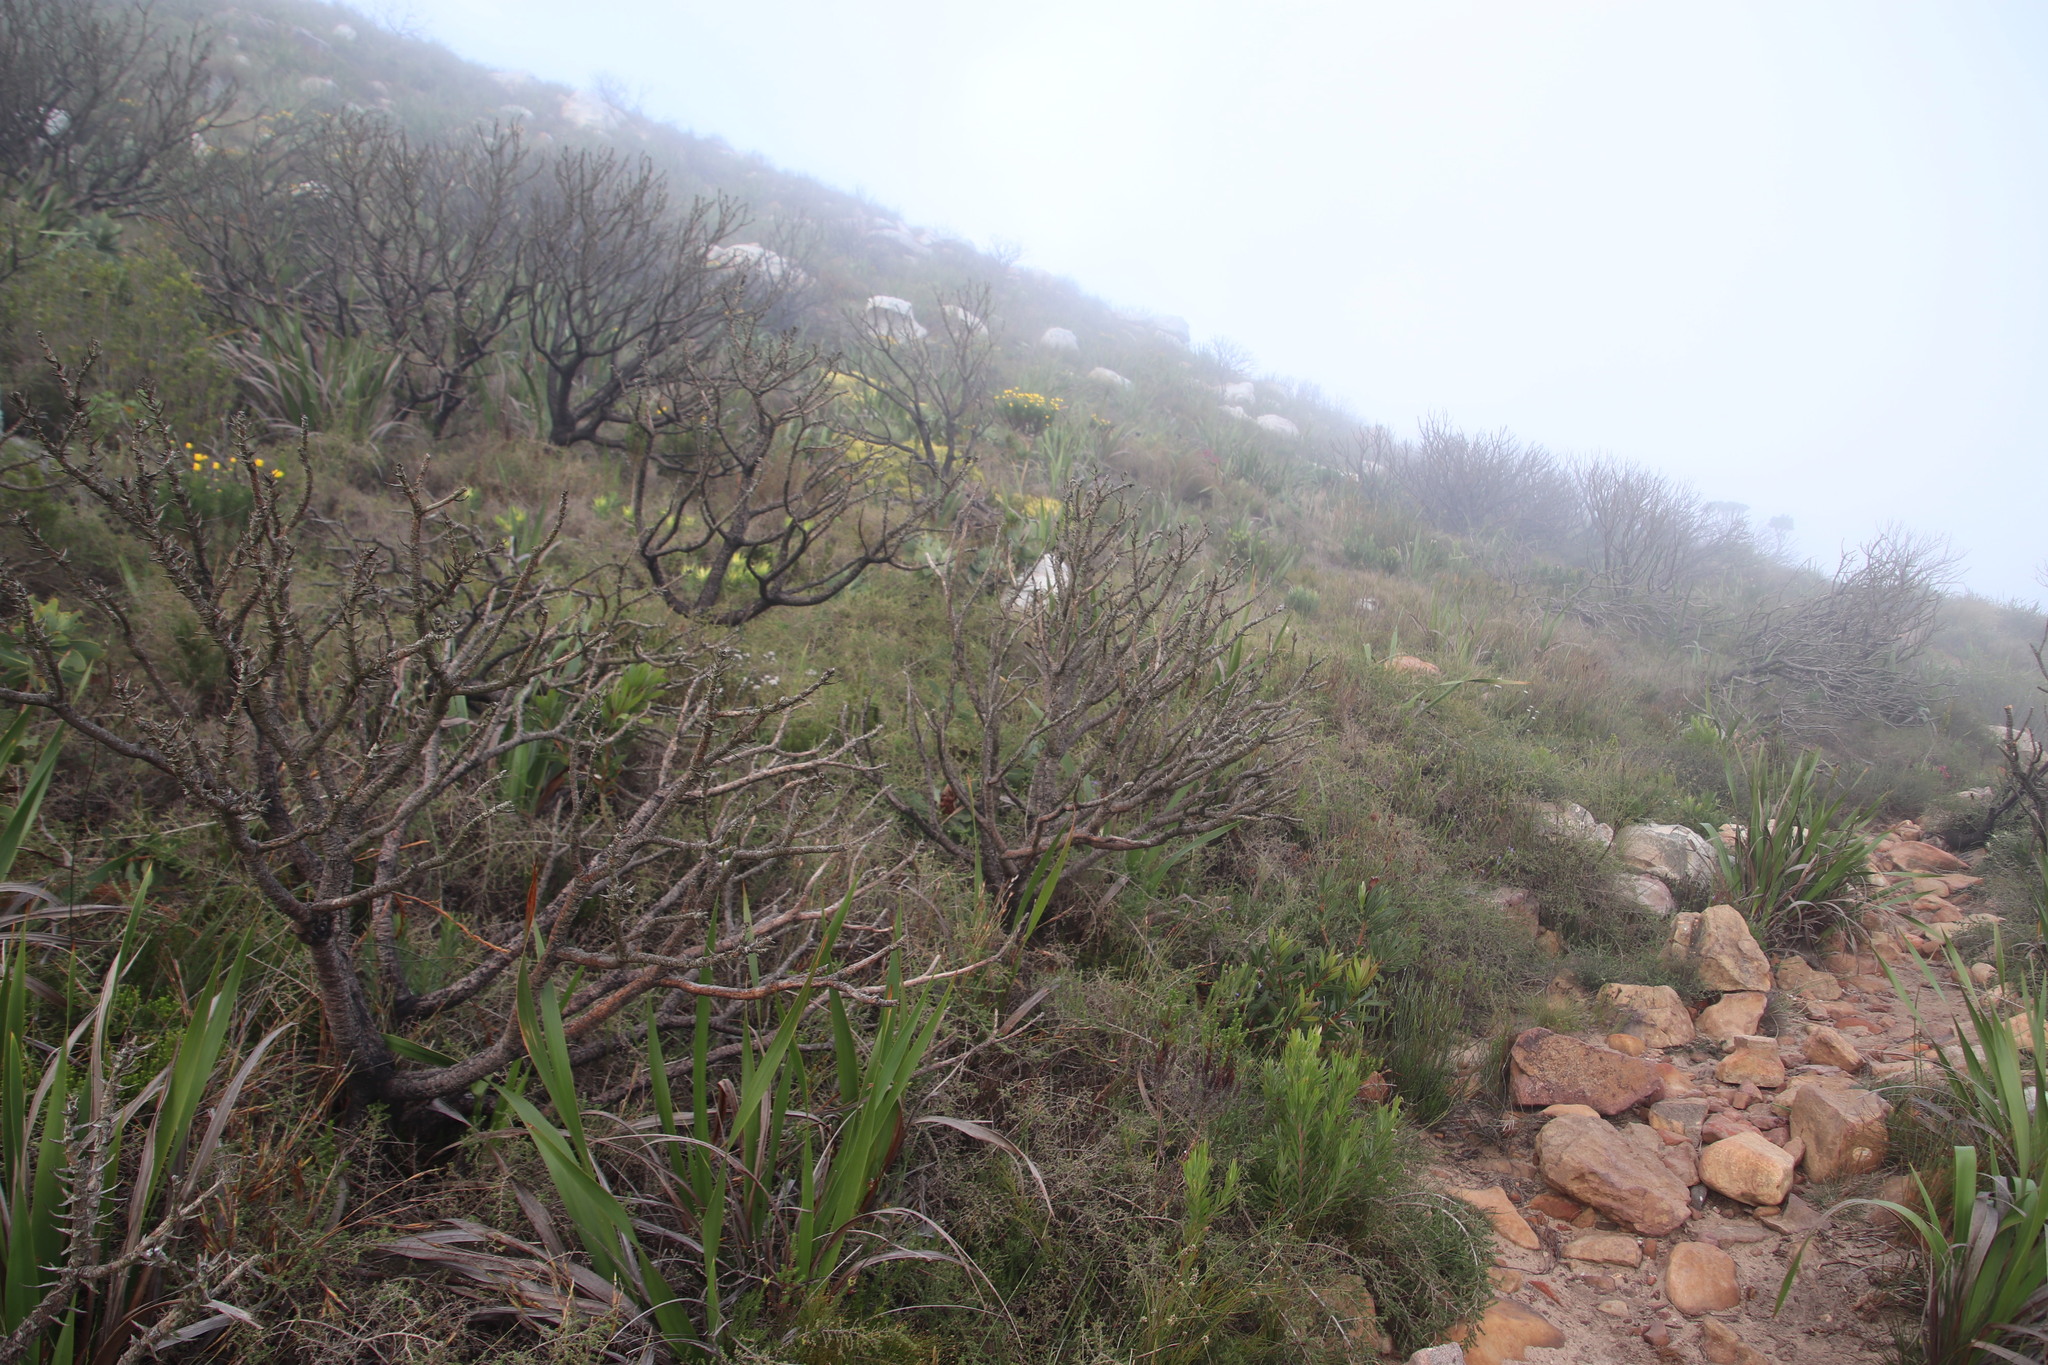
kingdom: Plantae
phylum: Tracheophyta
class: Magnoliopsida
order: Fabales
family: Fabaceae
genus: Aspalathus
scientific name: Aspalathus divaricata
